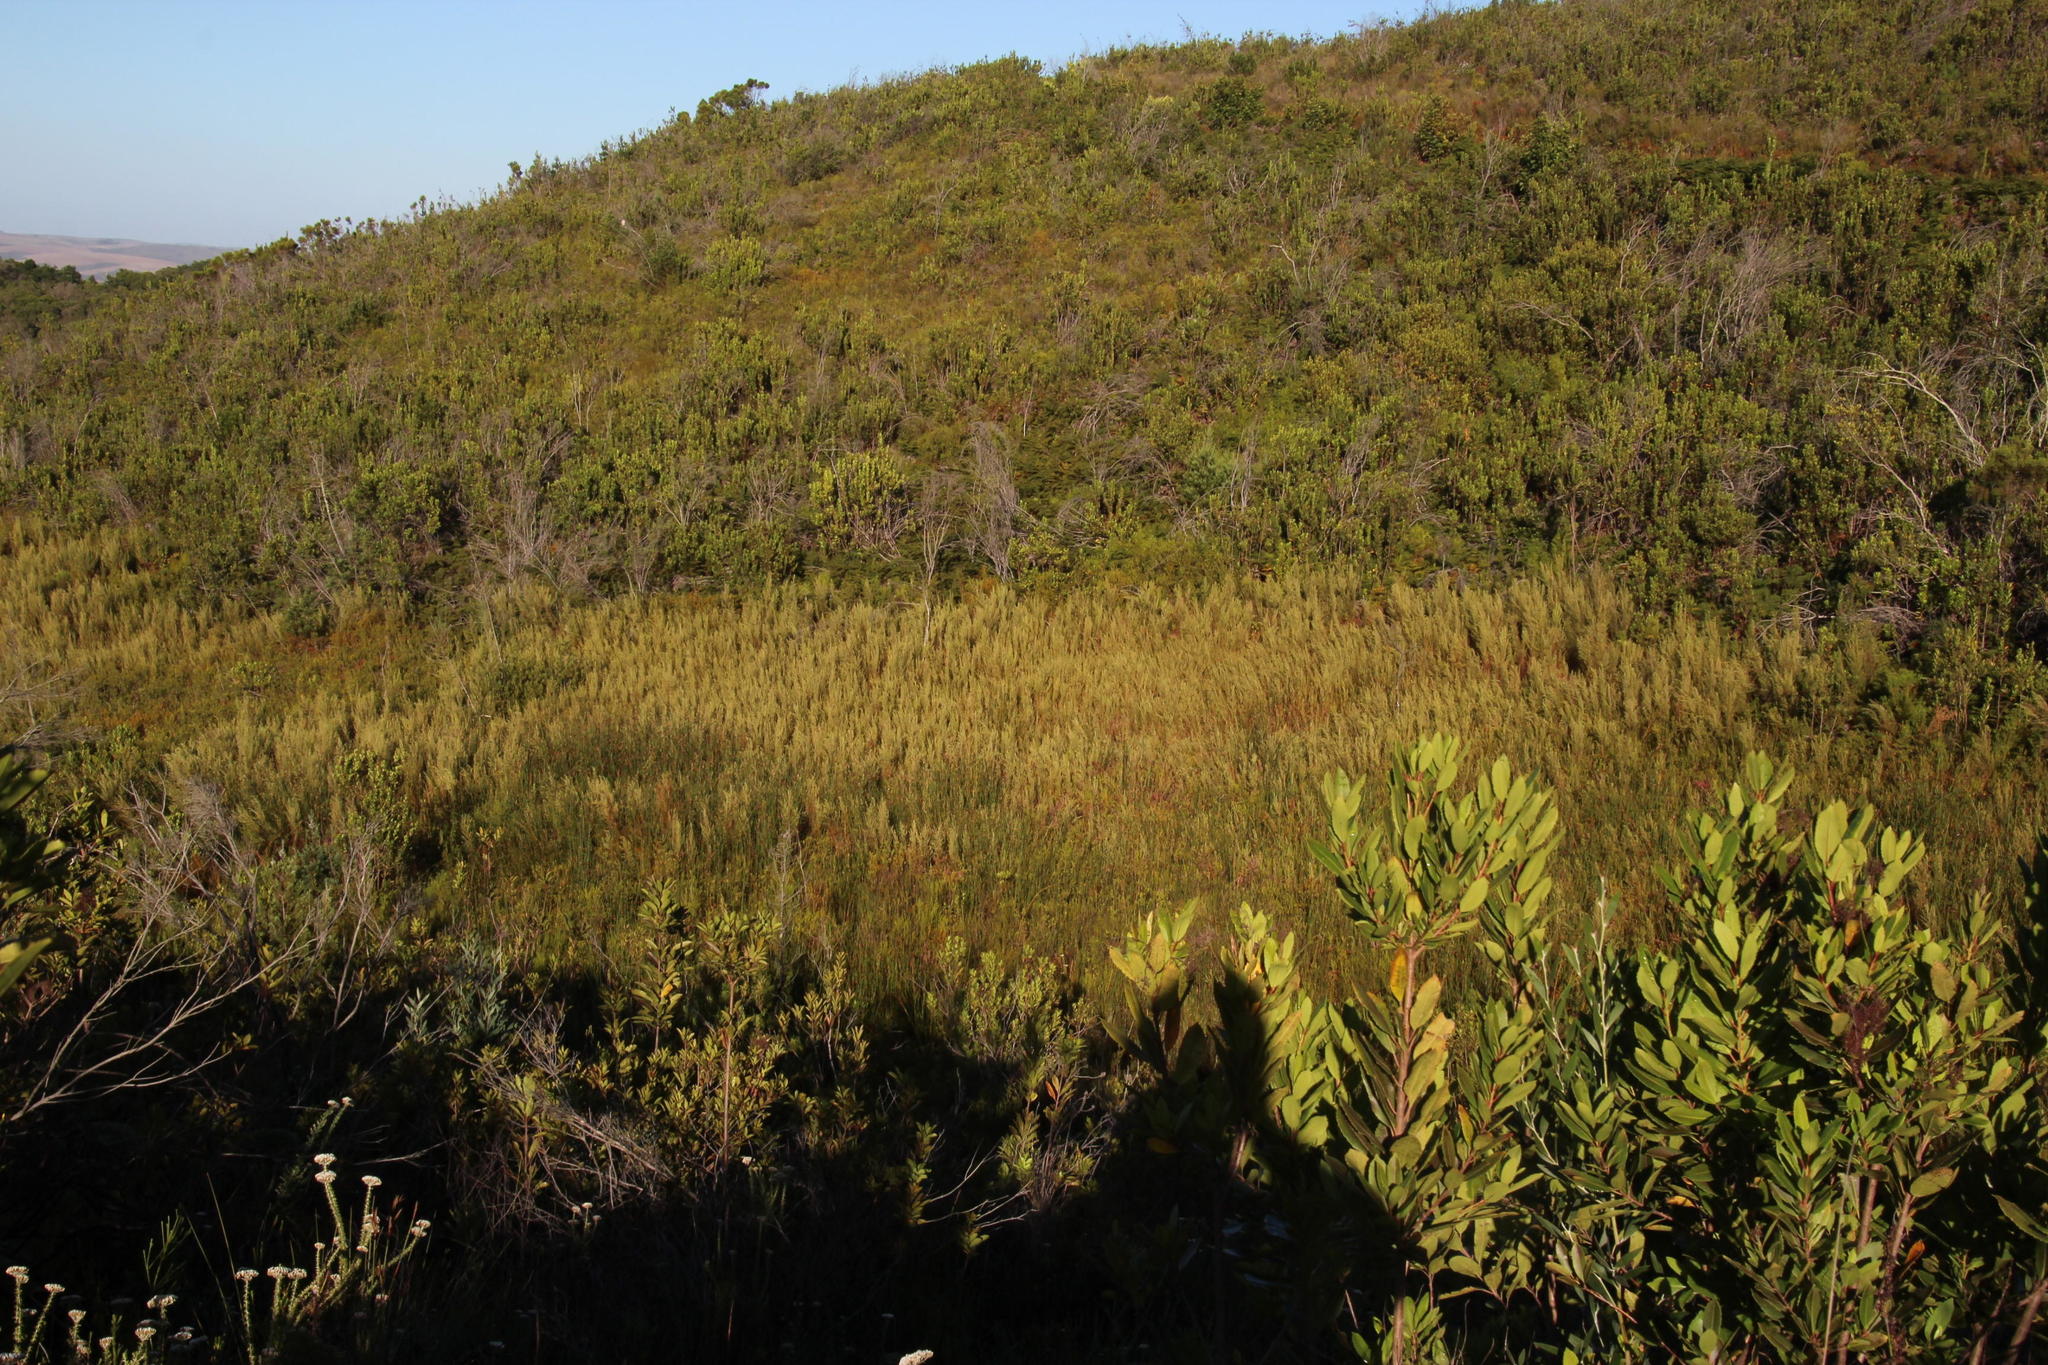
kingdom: Plantae
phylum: Tracheophyta
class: Magnoliopsida
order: Cornales
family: Grubbiaceae
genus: Grubbia
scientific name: Grubbia rosmarinifolia
